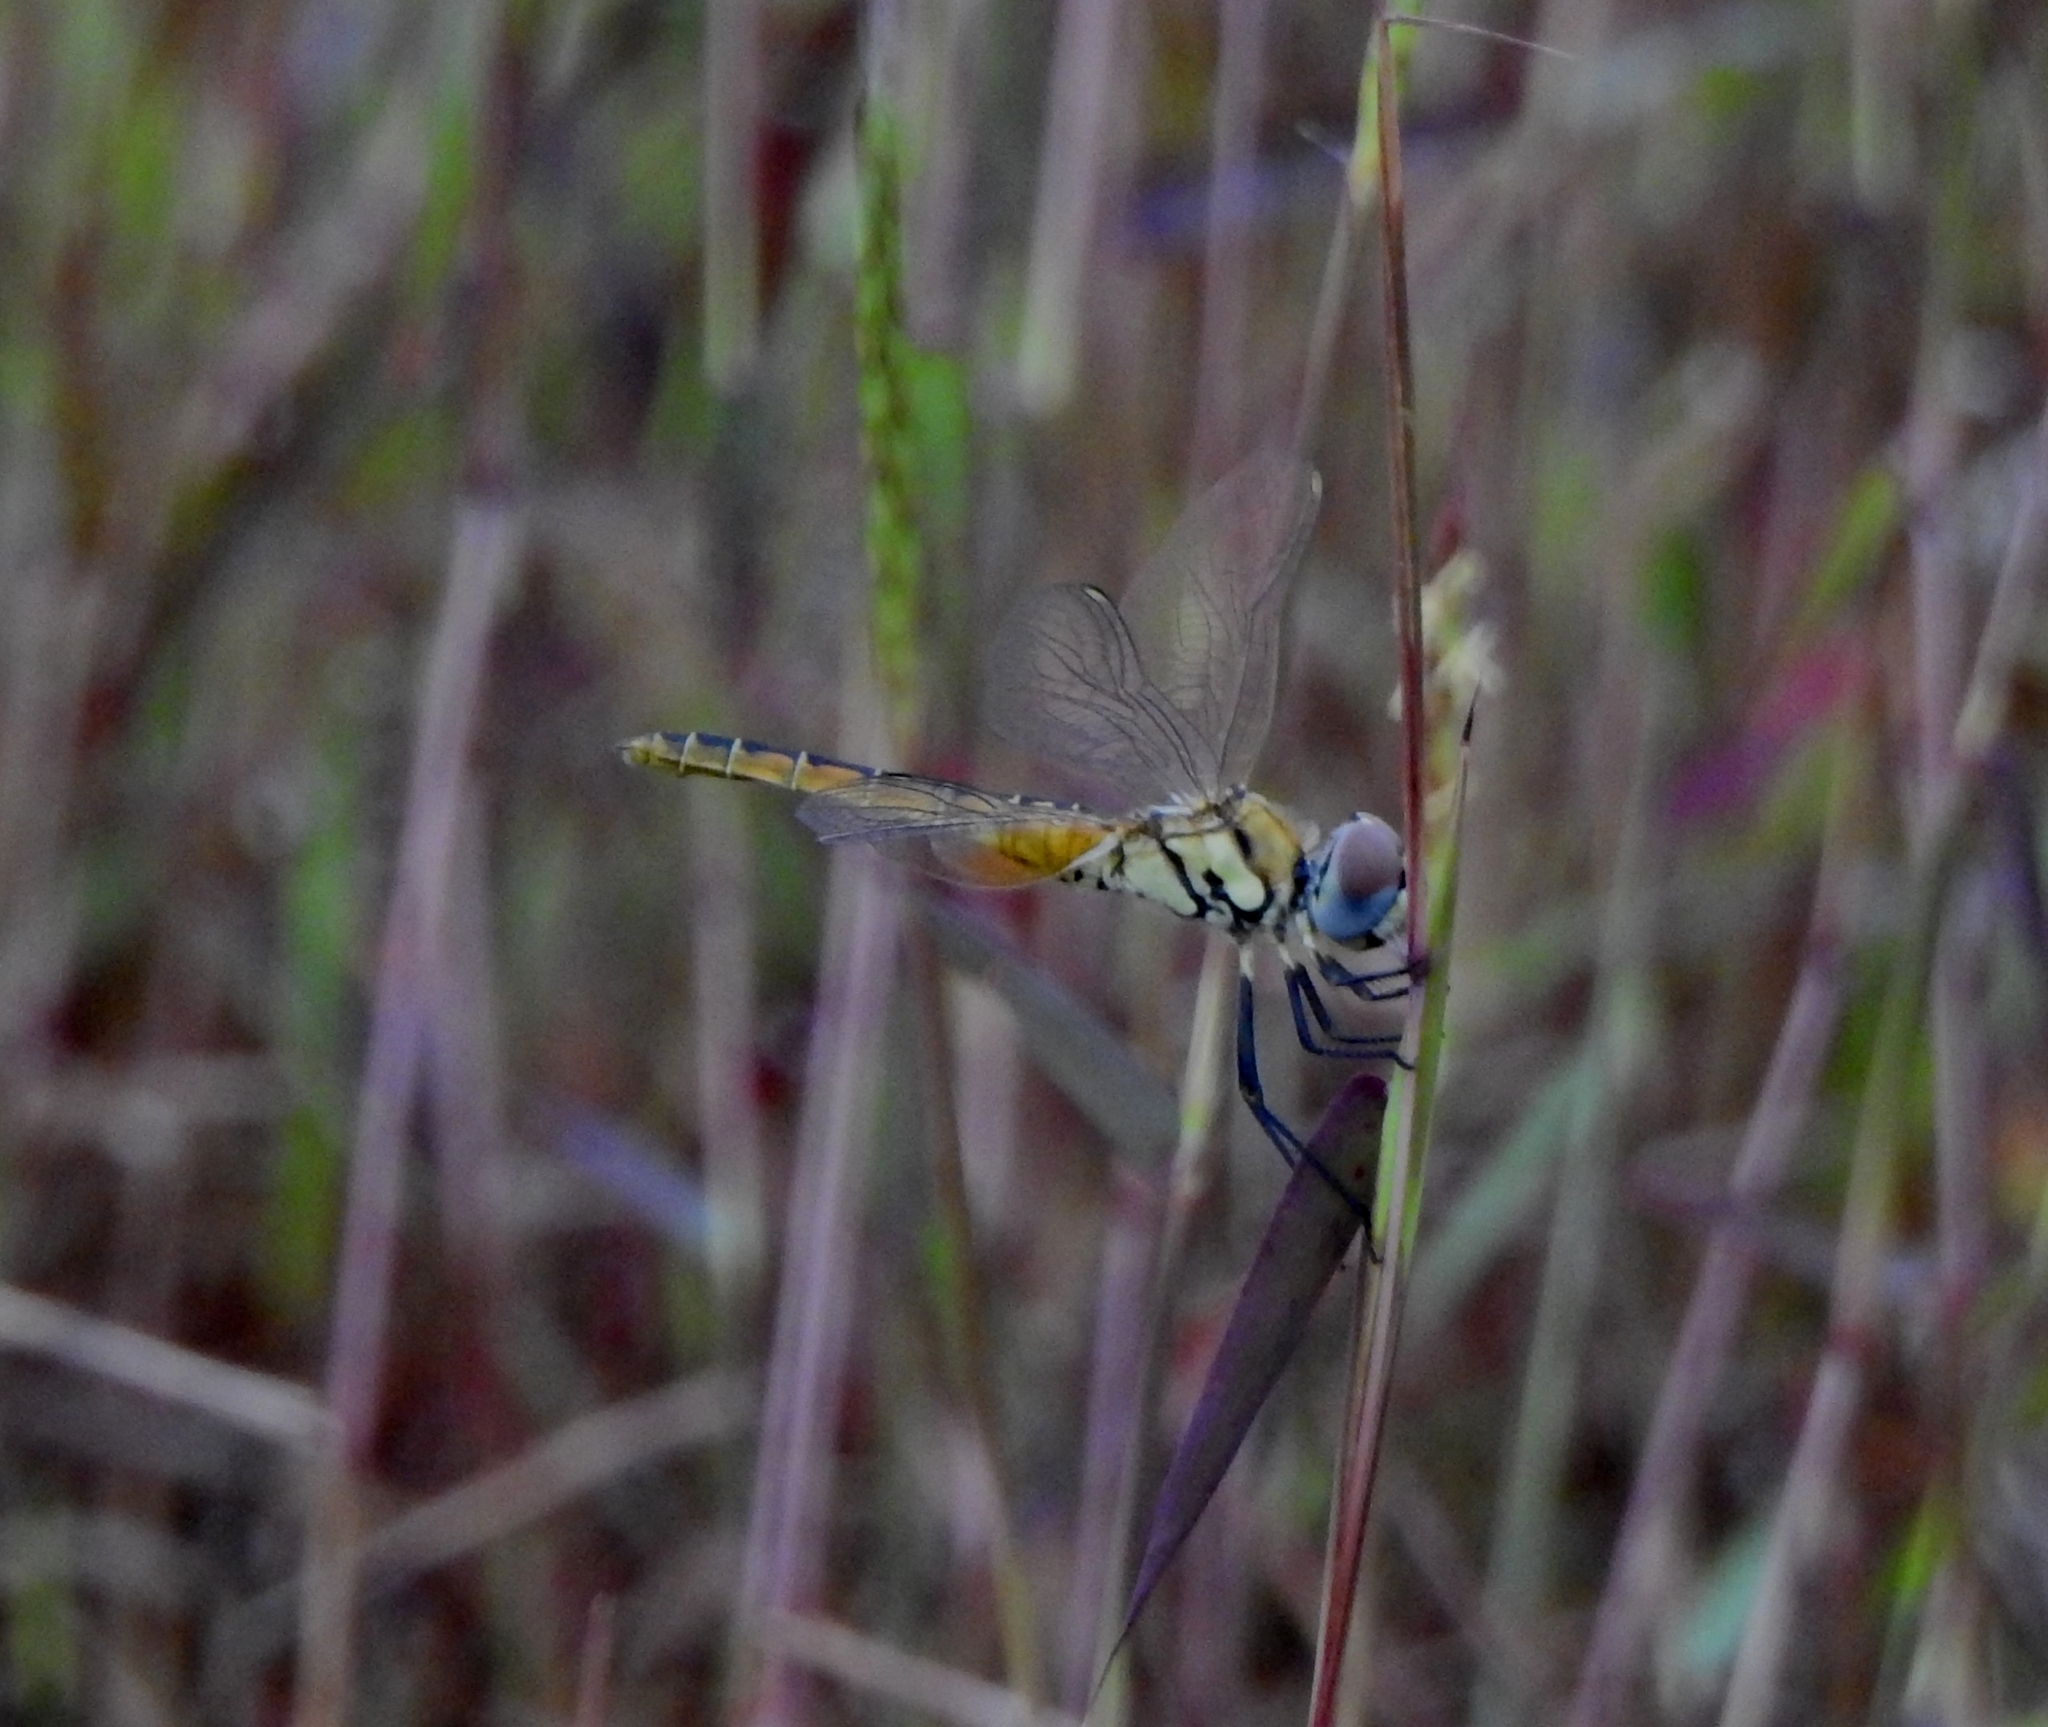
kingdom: Animalia
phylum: Arthropoda
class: Insecta
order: Odonata
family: Libellulidae
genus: Macrodiplax
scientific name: Macrodiplax cora
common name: Coastal glider
